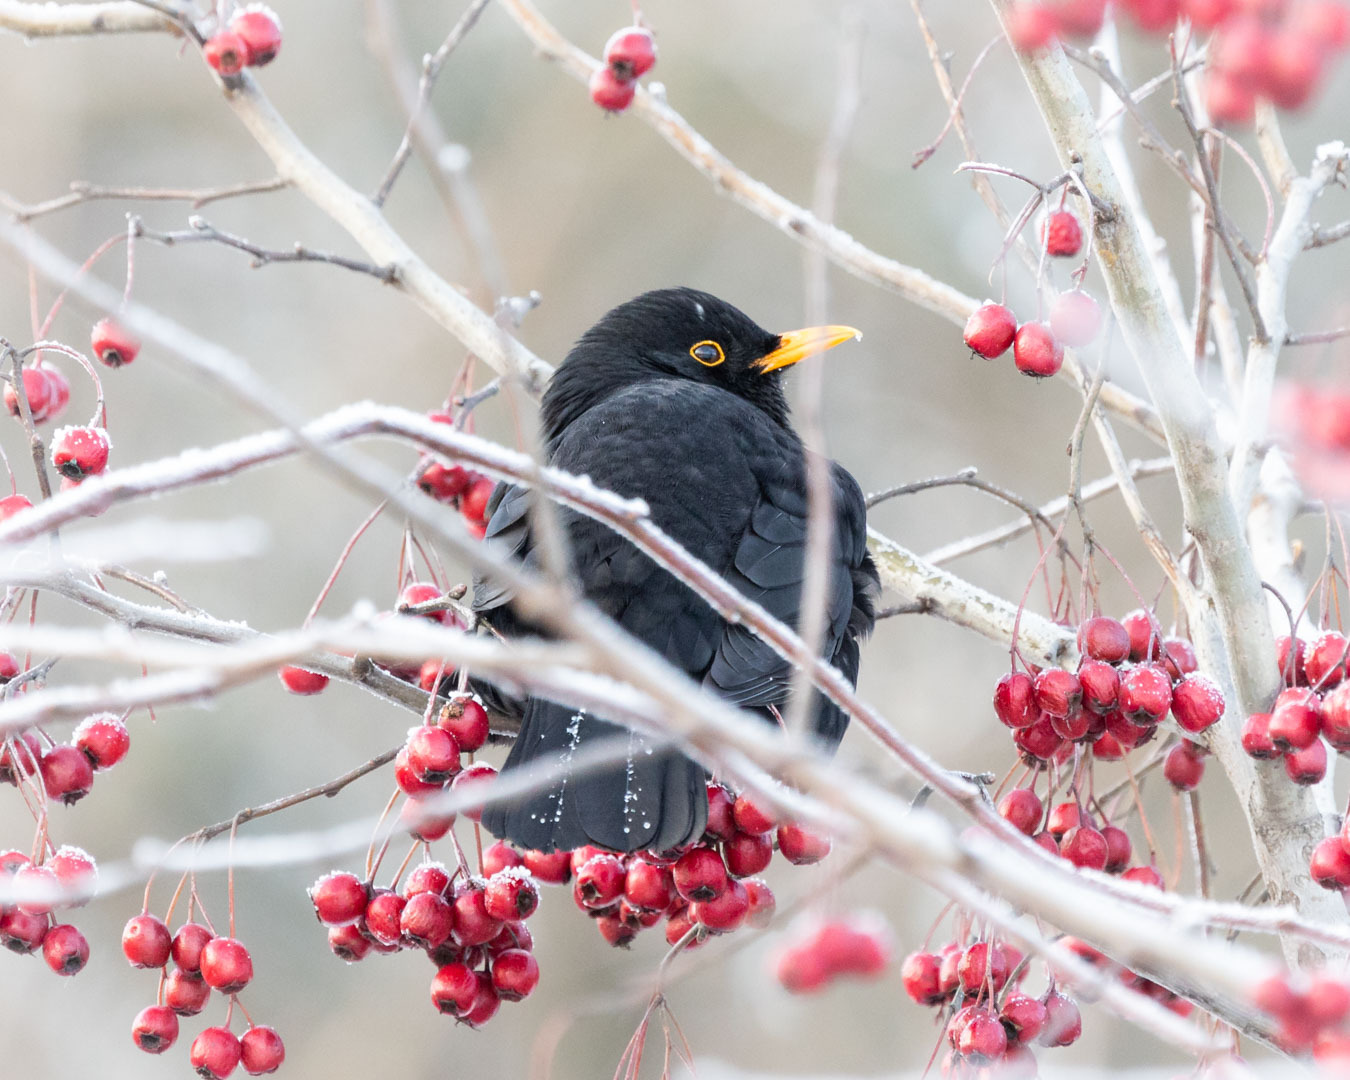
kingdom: Animalia
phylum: Chordata
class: Aves
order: Passeriformes
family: Turdidae
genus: Turdus
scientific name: Turdus merula
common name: Common blackbird
